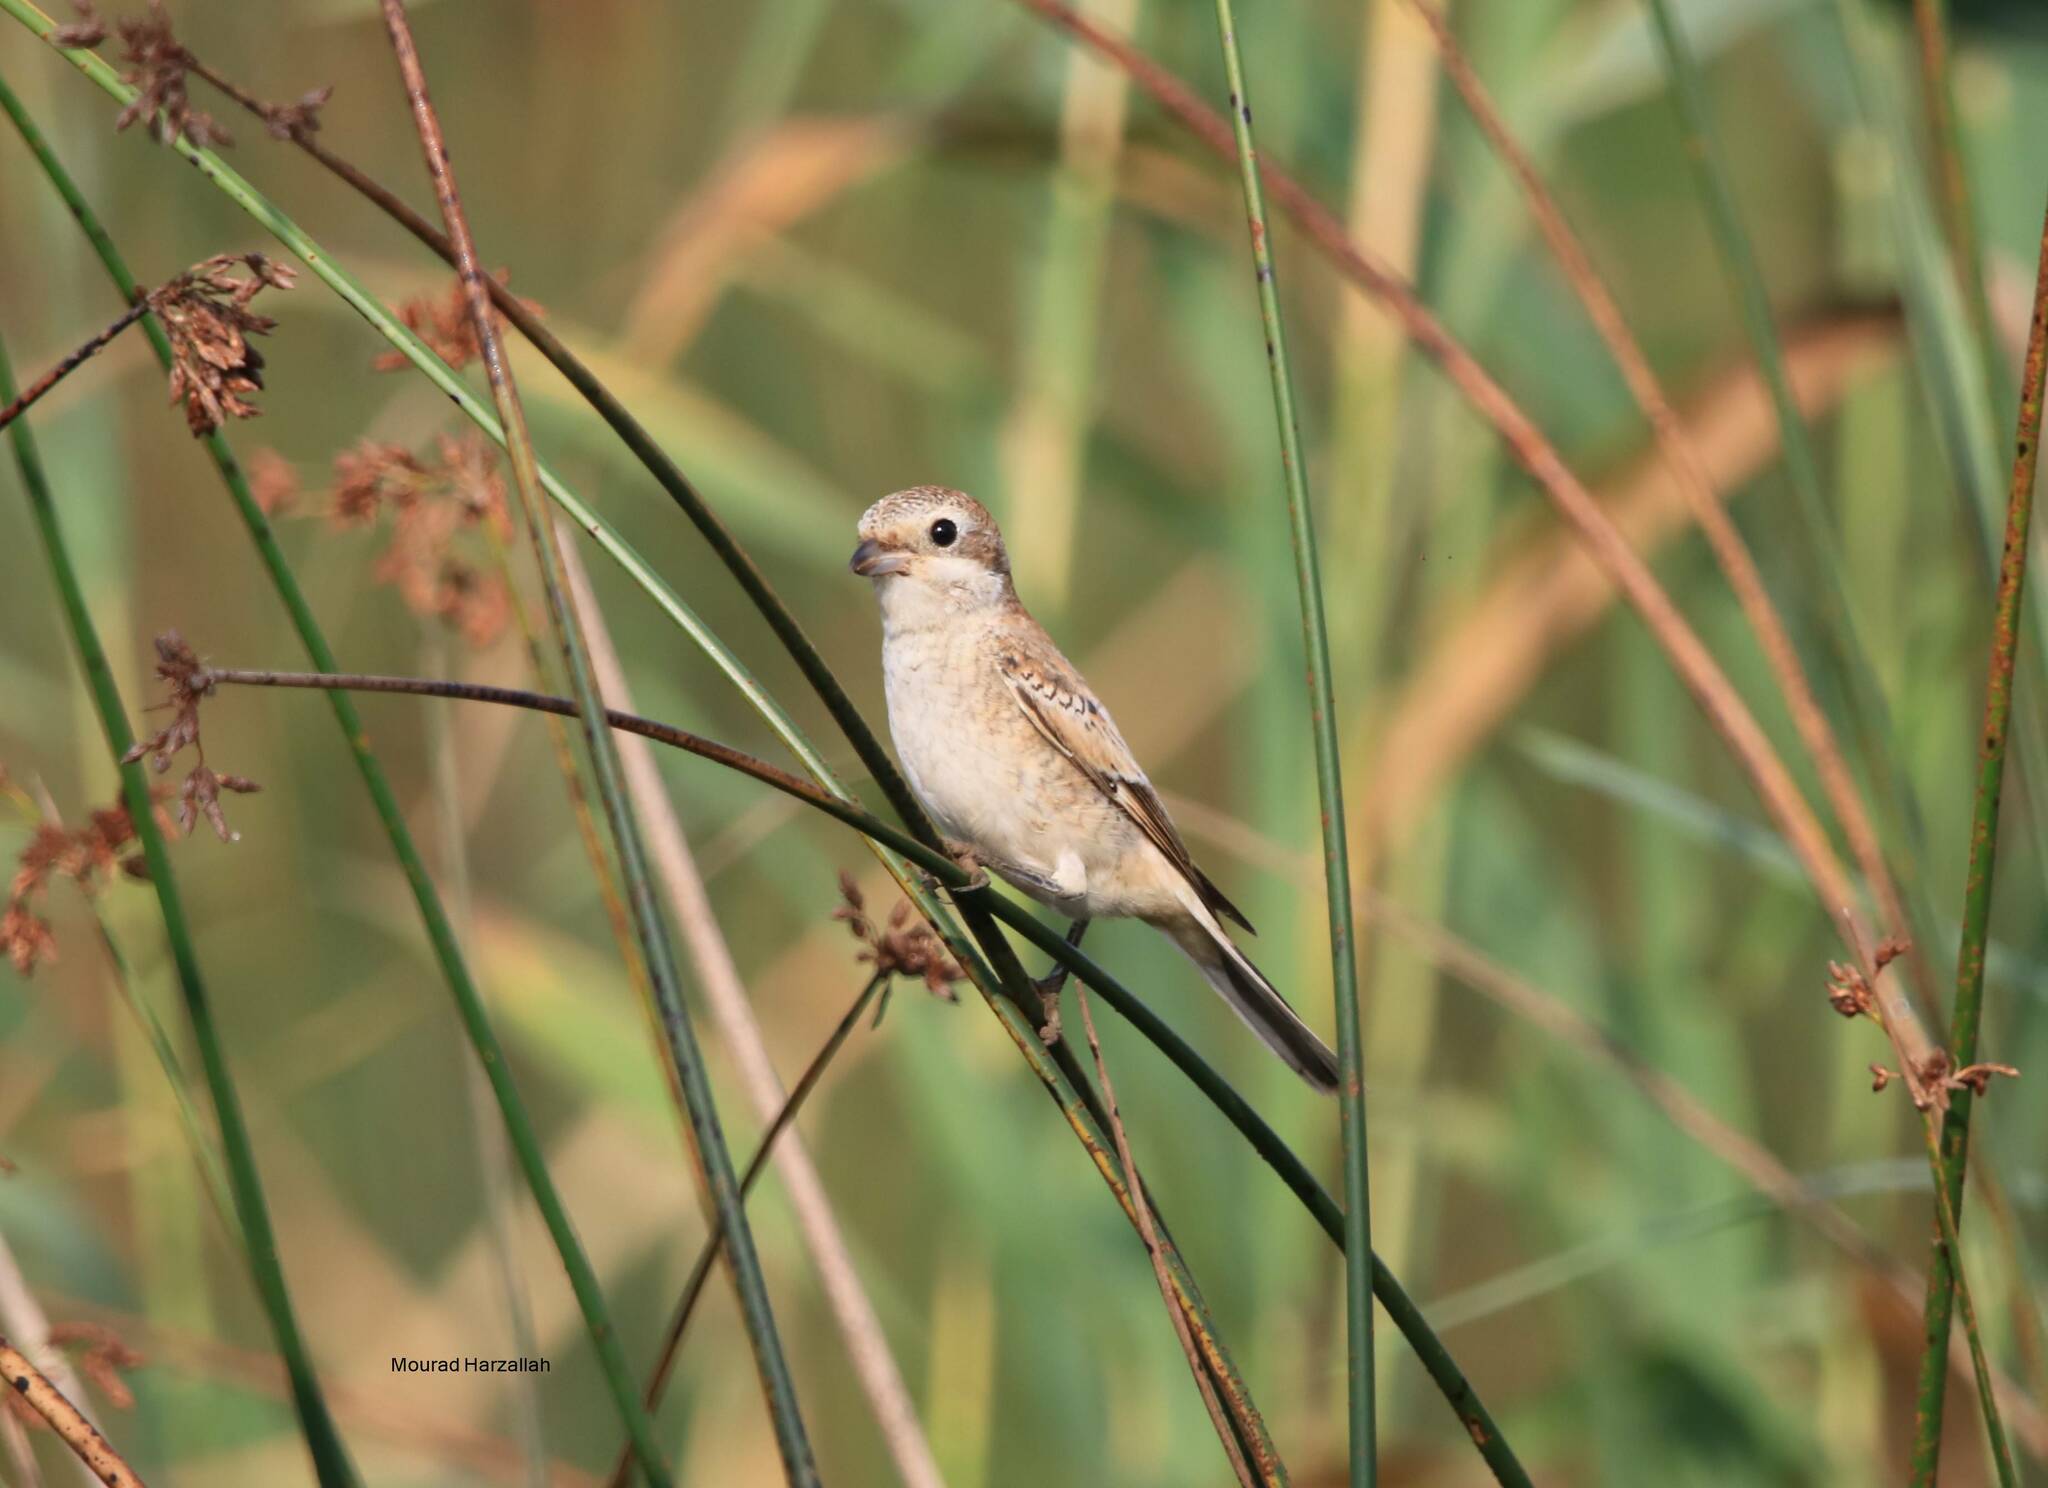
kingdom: Animalia
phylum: Chordata
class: Aves
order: Passeriformes
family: Laniidae
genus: Lanius
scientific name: Lanius senator
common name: Woodchat shrike
